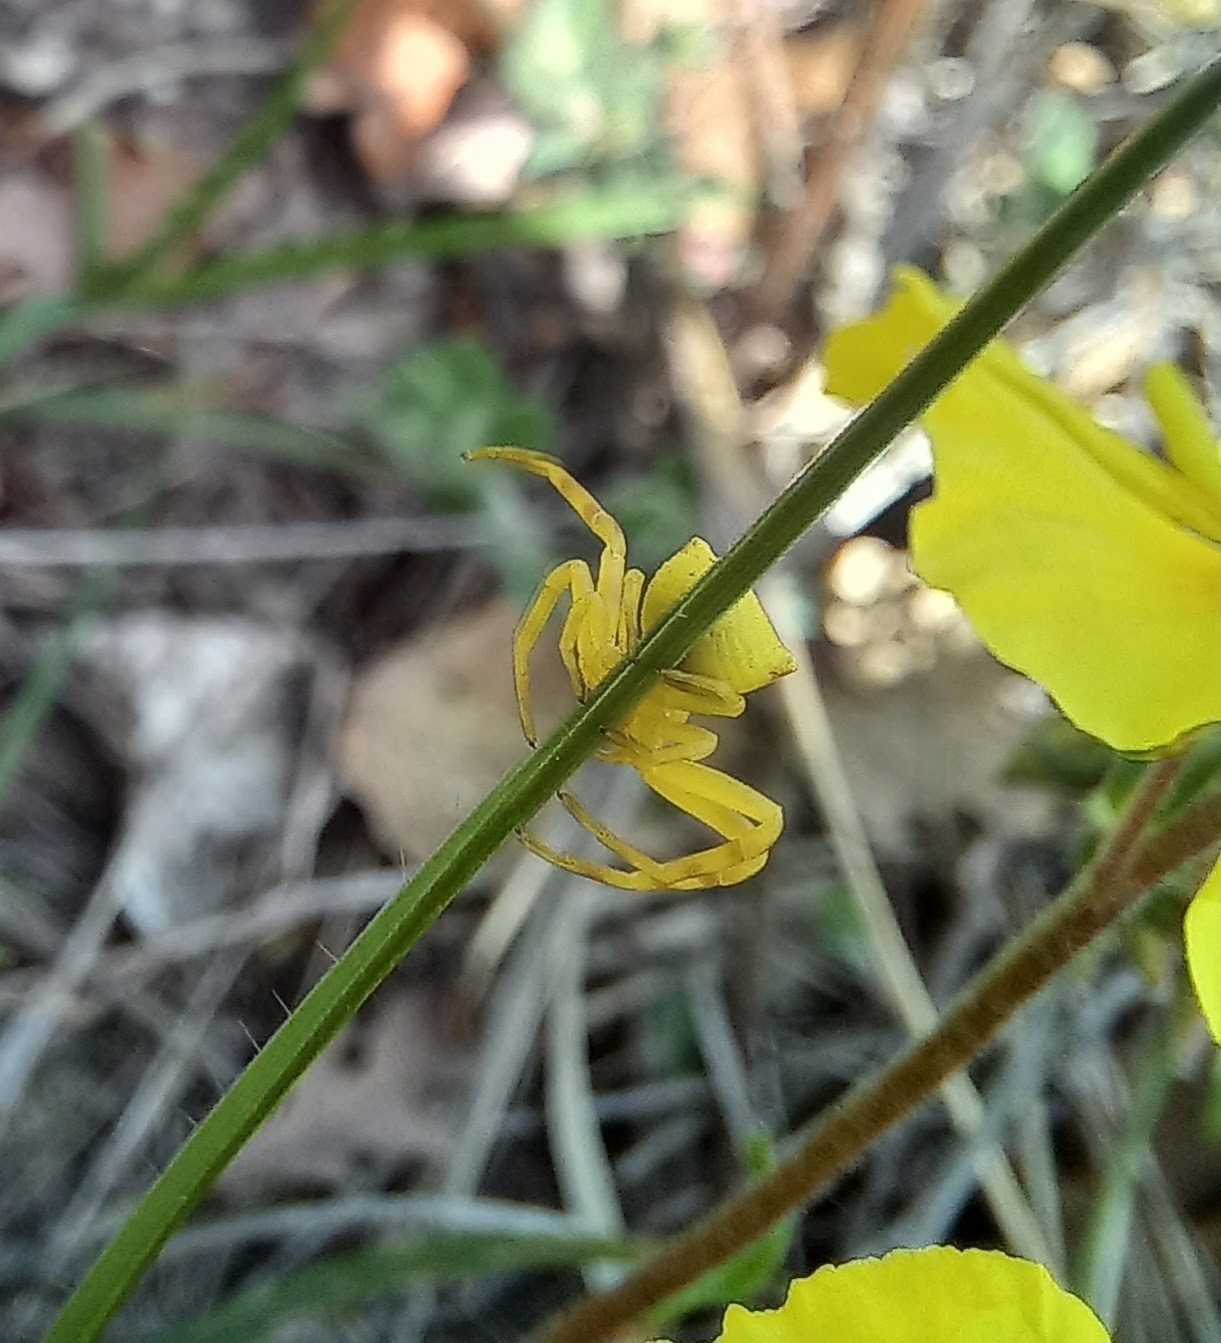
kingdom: Animalia
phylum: Arthropoda
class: Arachnida
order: Araneae
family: Thomisidae
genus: Thomisus
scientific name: Thomisus onustus
